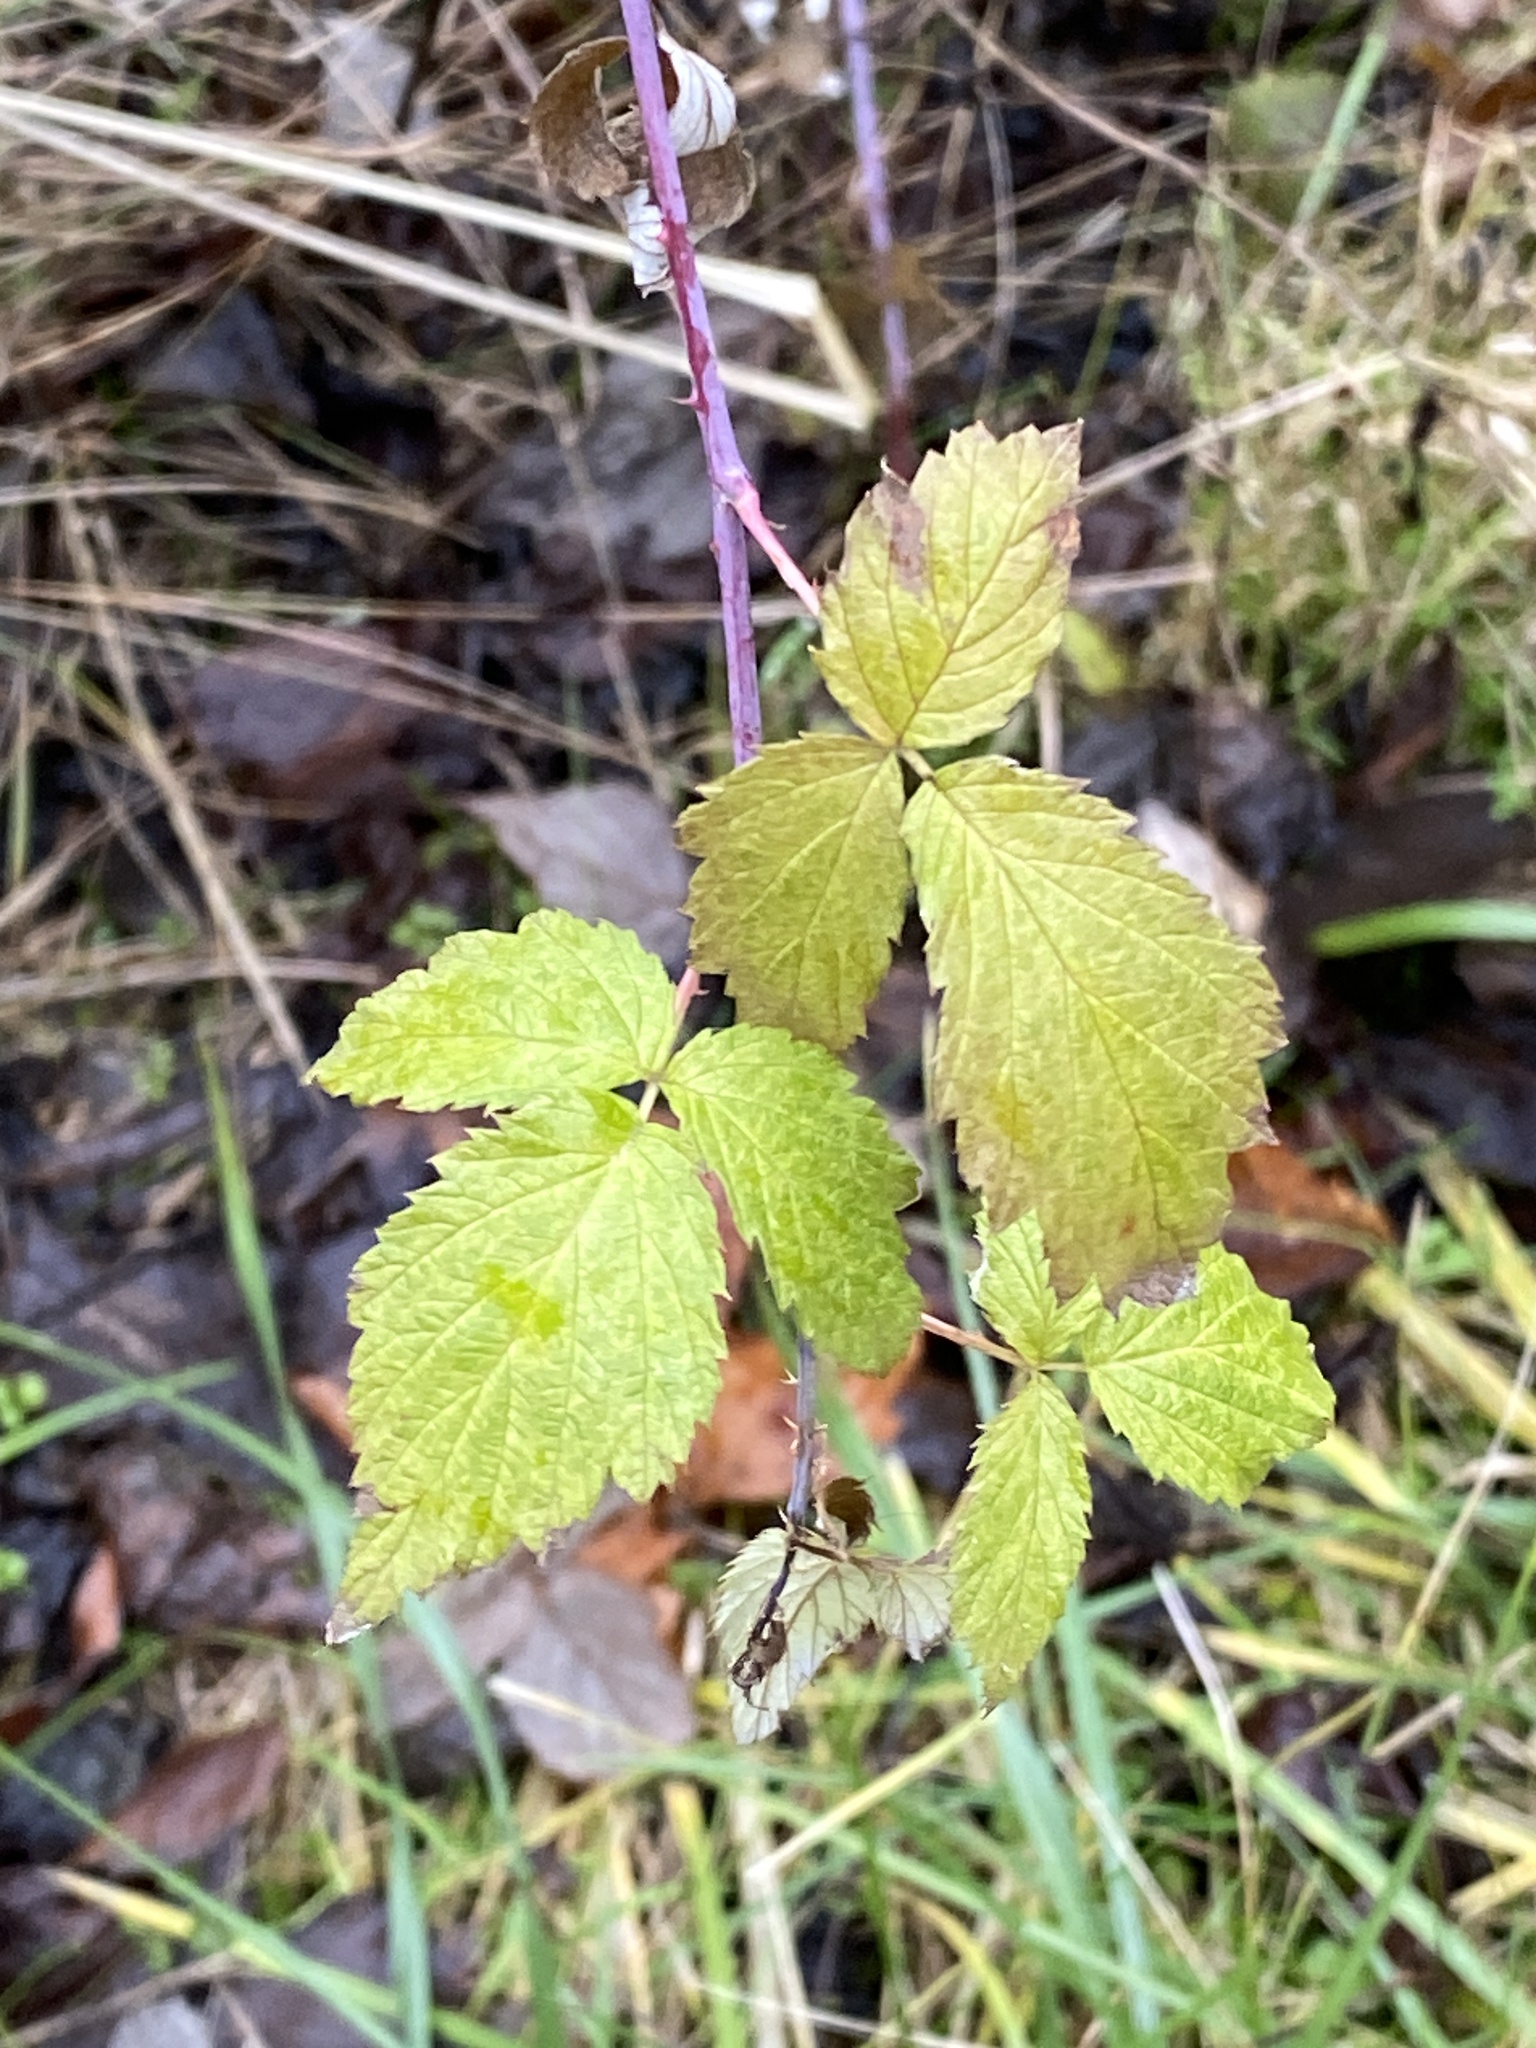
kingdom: Plantae
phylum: Tracheophyta
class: Magnoliopsida
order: Rosales
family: Rosaceae
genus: Rubus
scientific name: Rubus occidentalis
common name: Black raspberry
